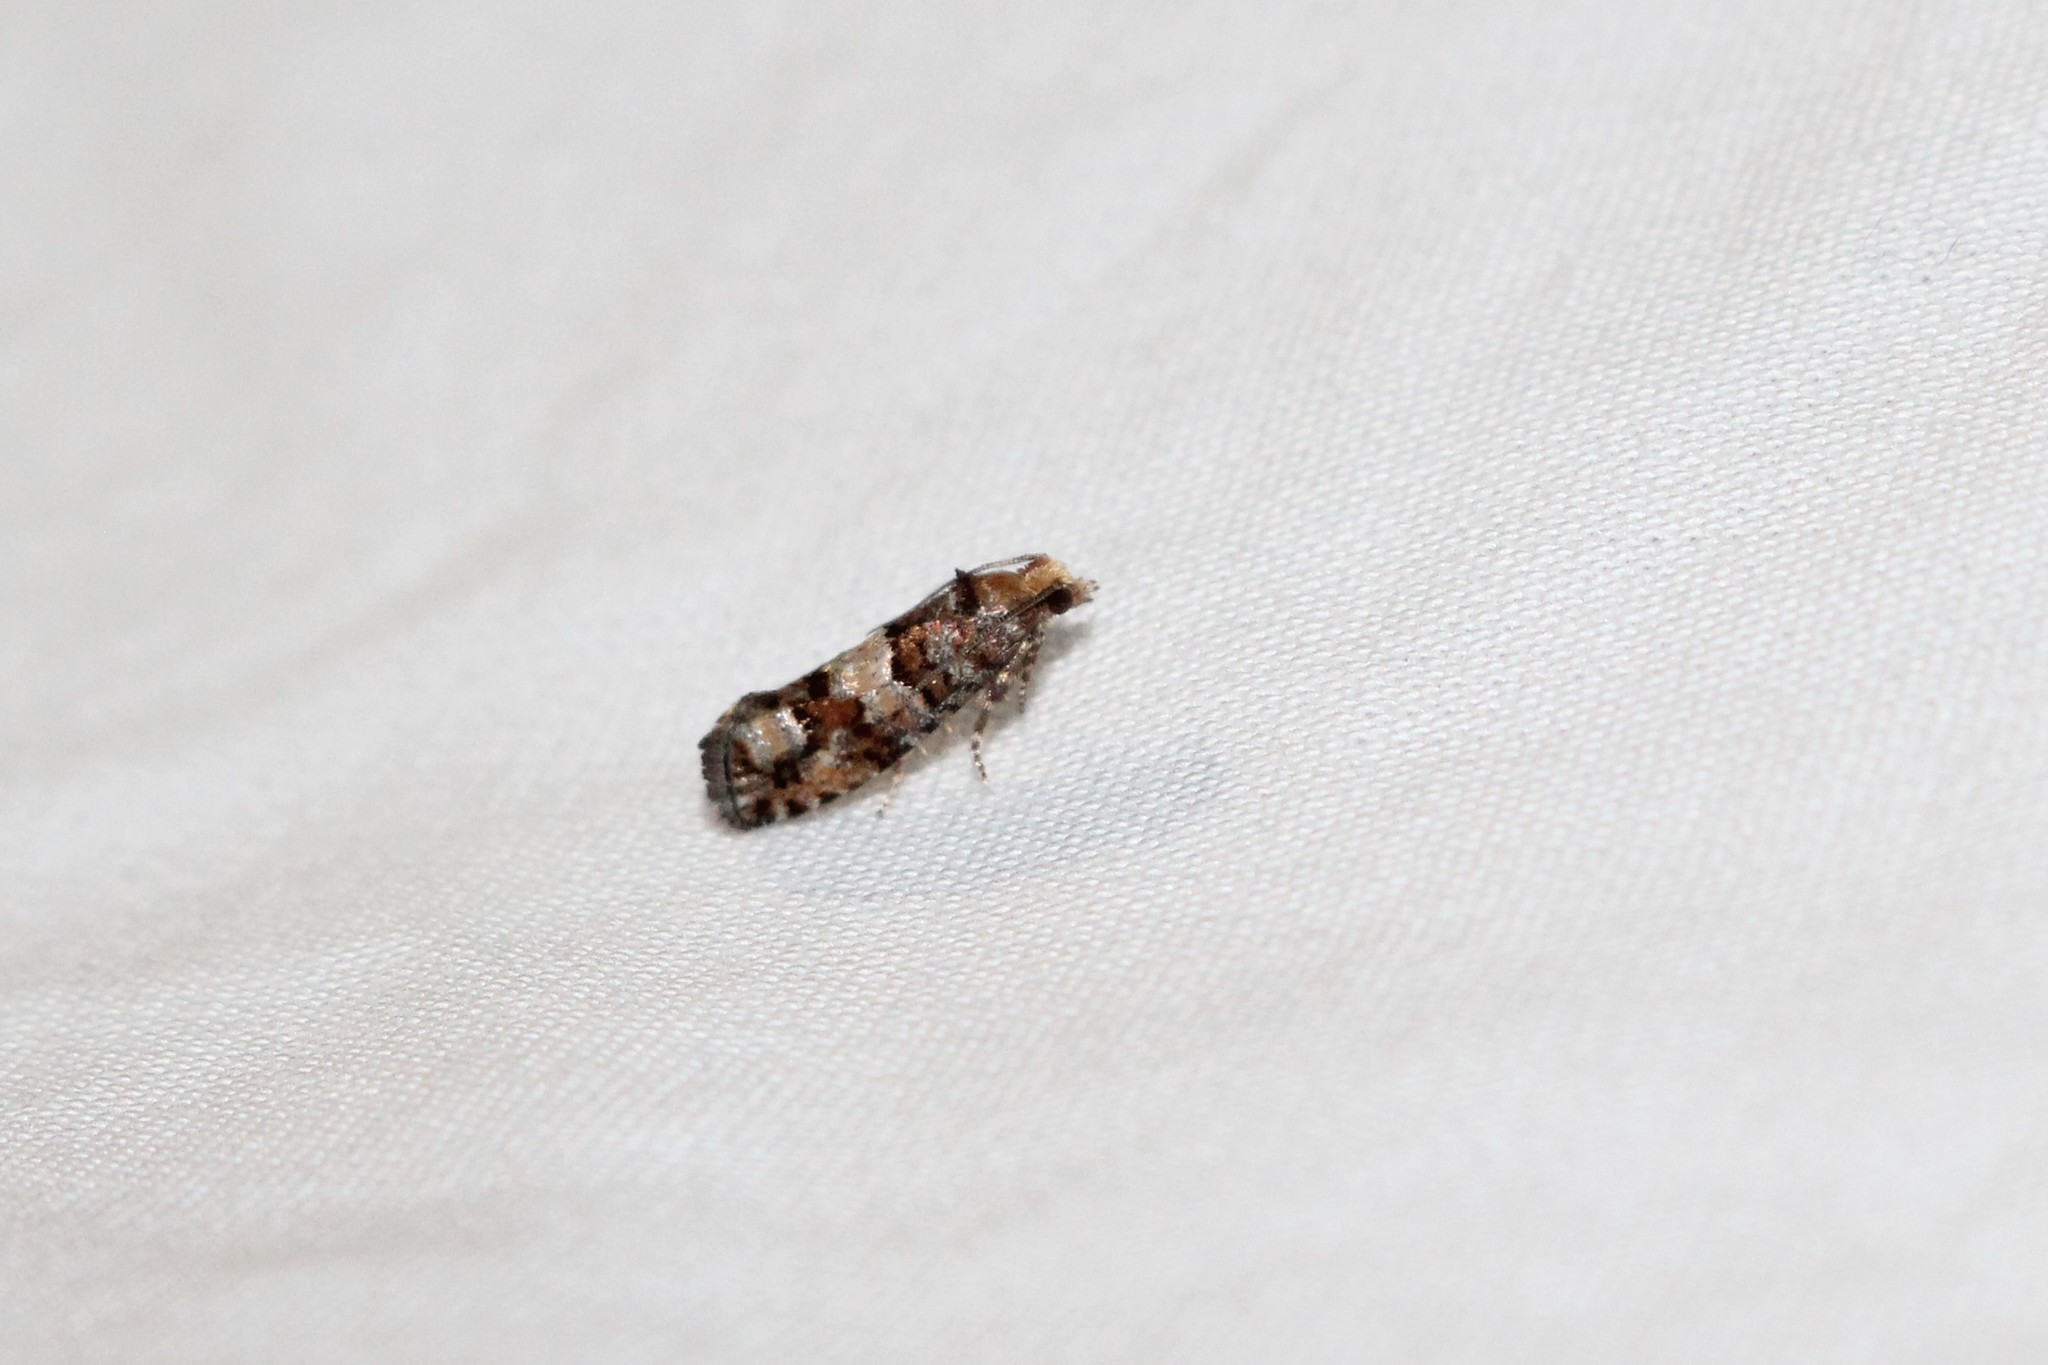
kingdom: Animalia
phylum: Arthropoda
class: Insecta
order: Lepidoptera
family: Tortricidae
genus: Eucopina
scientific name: Eucopina tocullionana
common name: White pinecone borer moth
